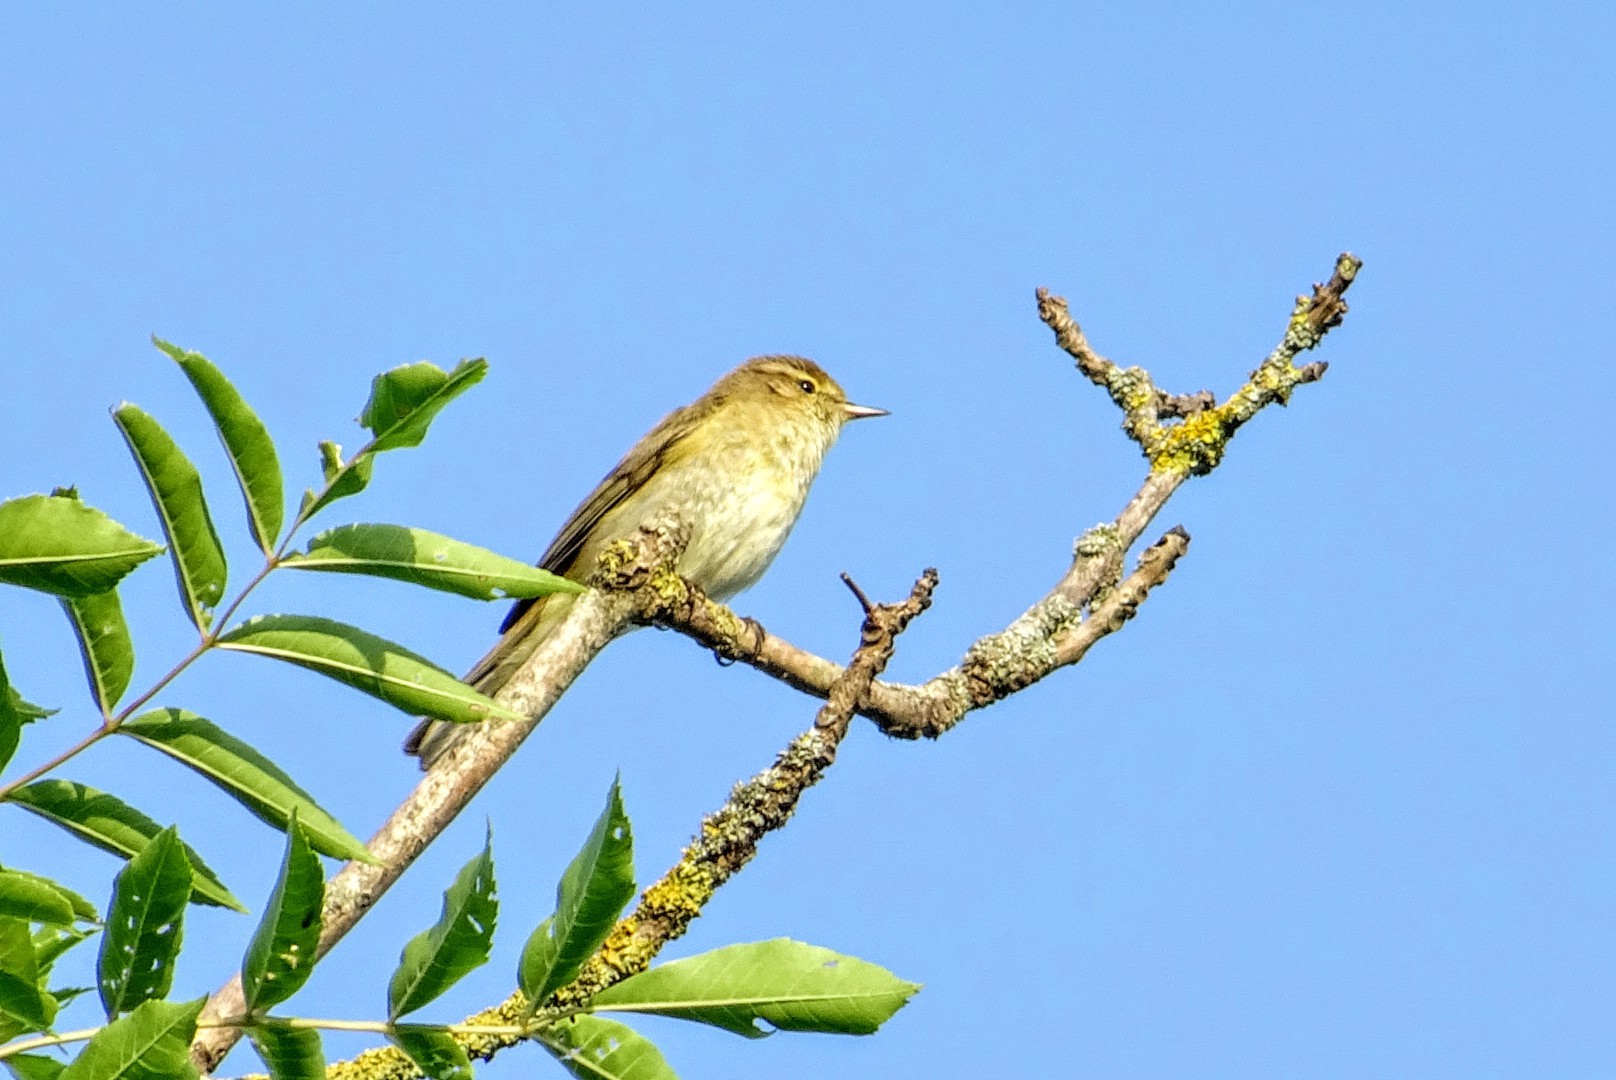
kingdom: Animalia
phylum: Chordata
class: Aves
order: Passeriformes
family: Phylloscopidae
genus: Phylloscopus
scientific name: Phylloscopus trochilus
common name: Willow warbler
